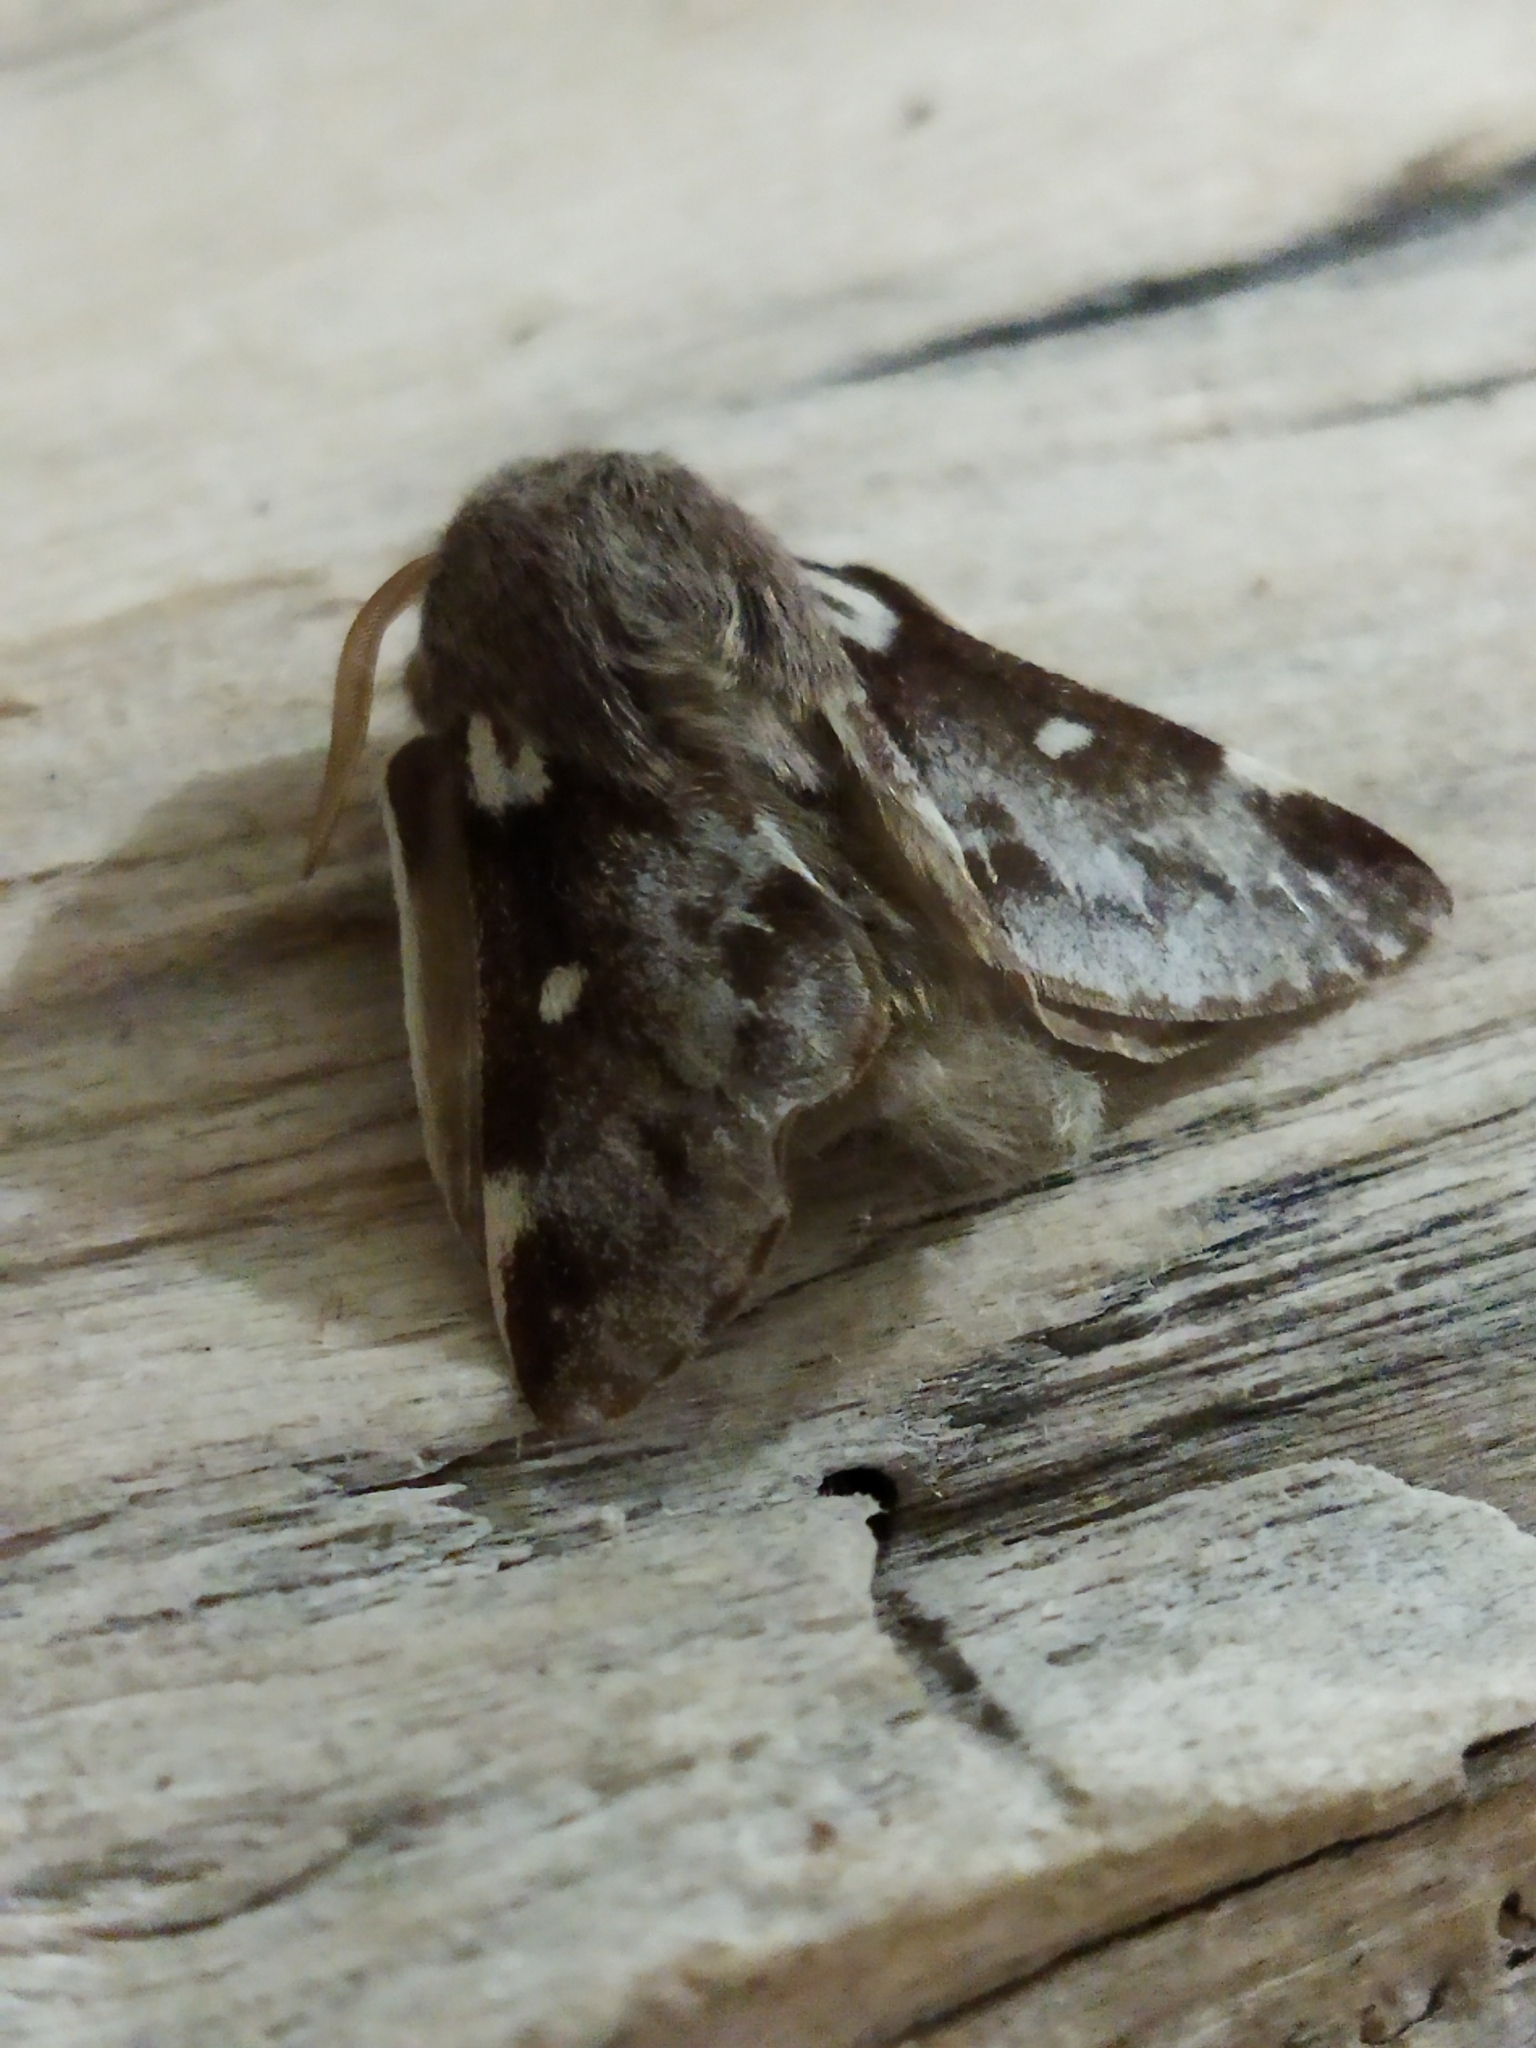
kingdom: Animalia
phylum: Arthropoda
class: Insecta
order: Lepidoptera
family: Lasiocampidae
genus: Eriogaster
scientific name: Eriogaster lanestris
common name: Small eggar
